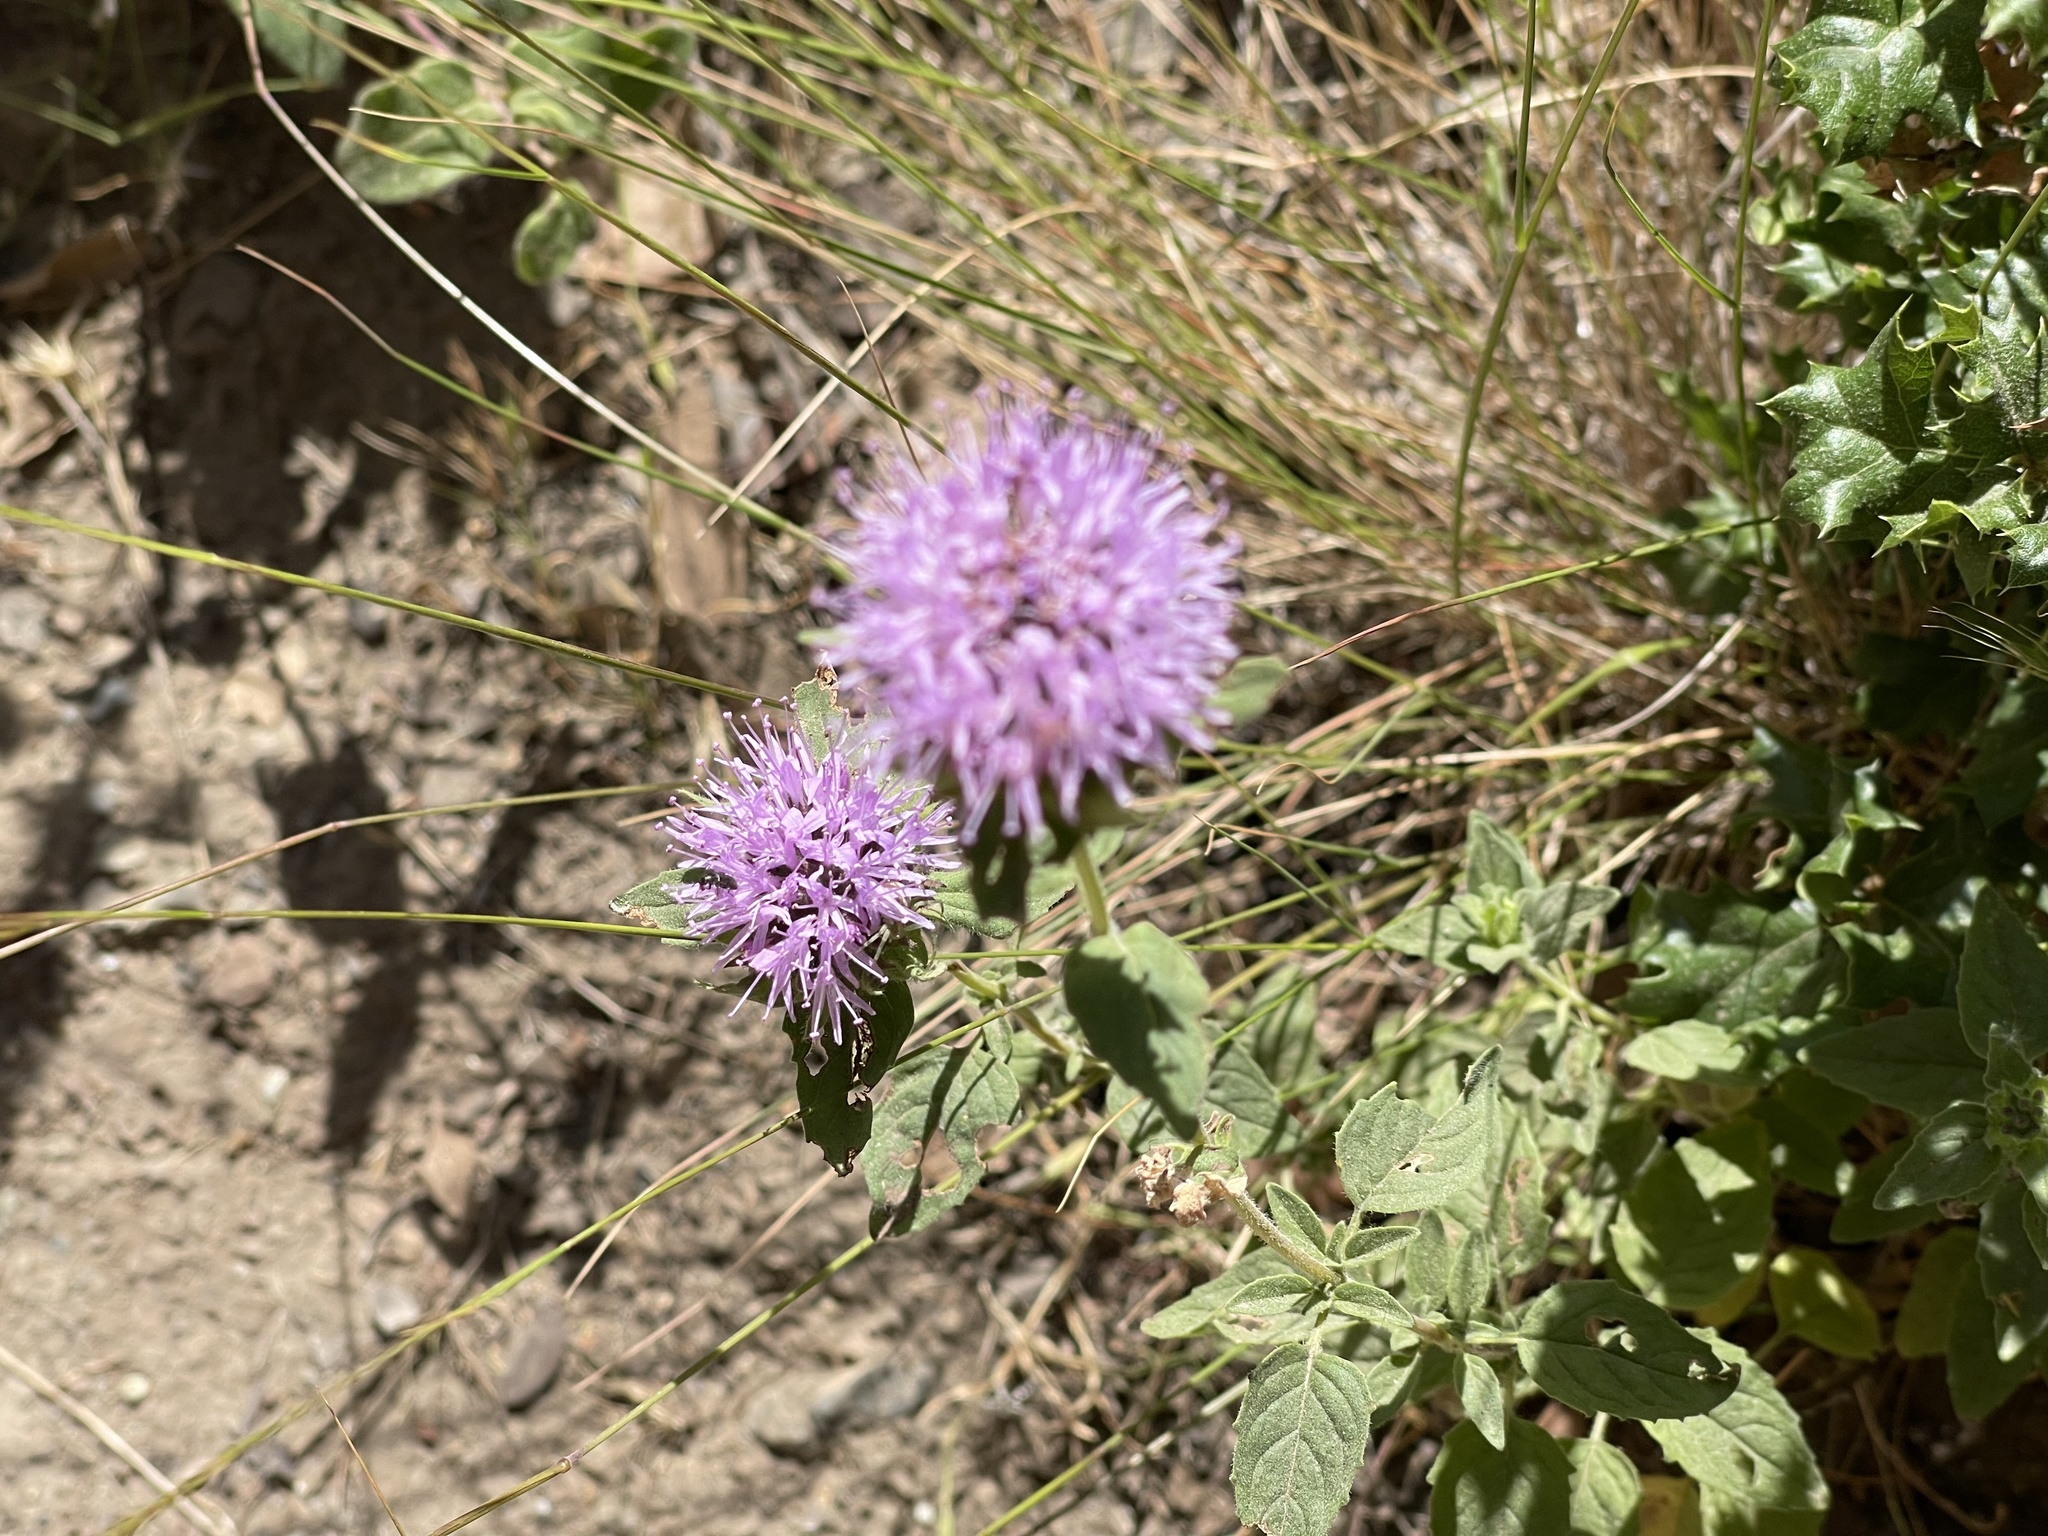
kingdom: Plantae
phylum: Tracheophyta
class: Magnoliopsida
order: Lamiales
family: Lamiaceae
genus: Monardella
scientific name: Monardella odoratissima
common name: Pacific monardella
